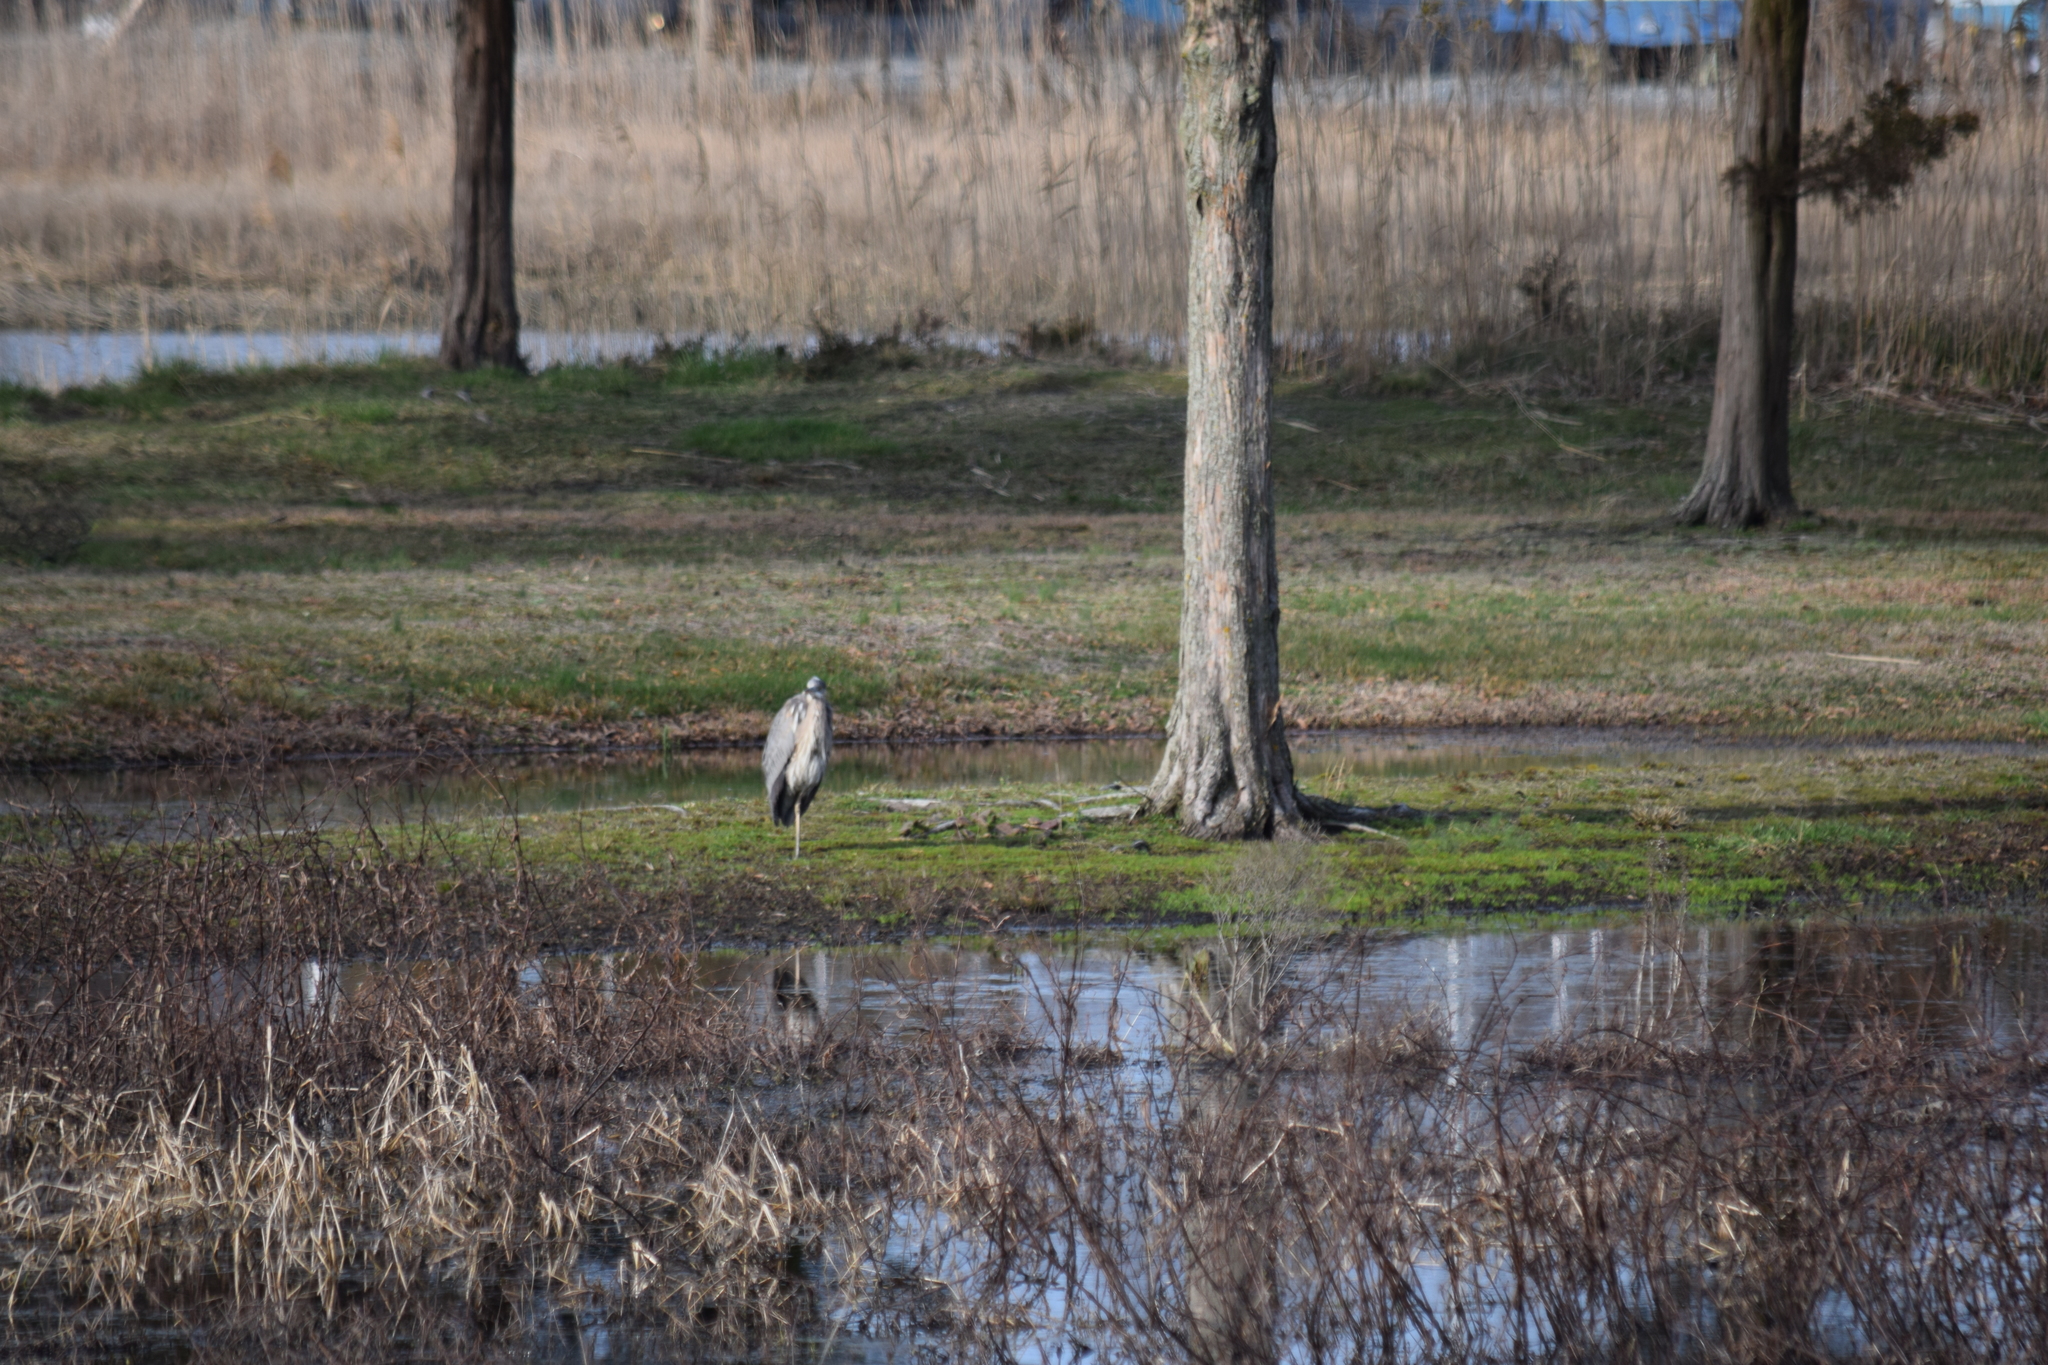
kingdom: Animalia
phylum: Chordata
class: Aves
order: Pelecaniformes
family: Ardeidae
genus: Ardea
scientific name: Ardea herodias
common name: Great blue heron
